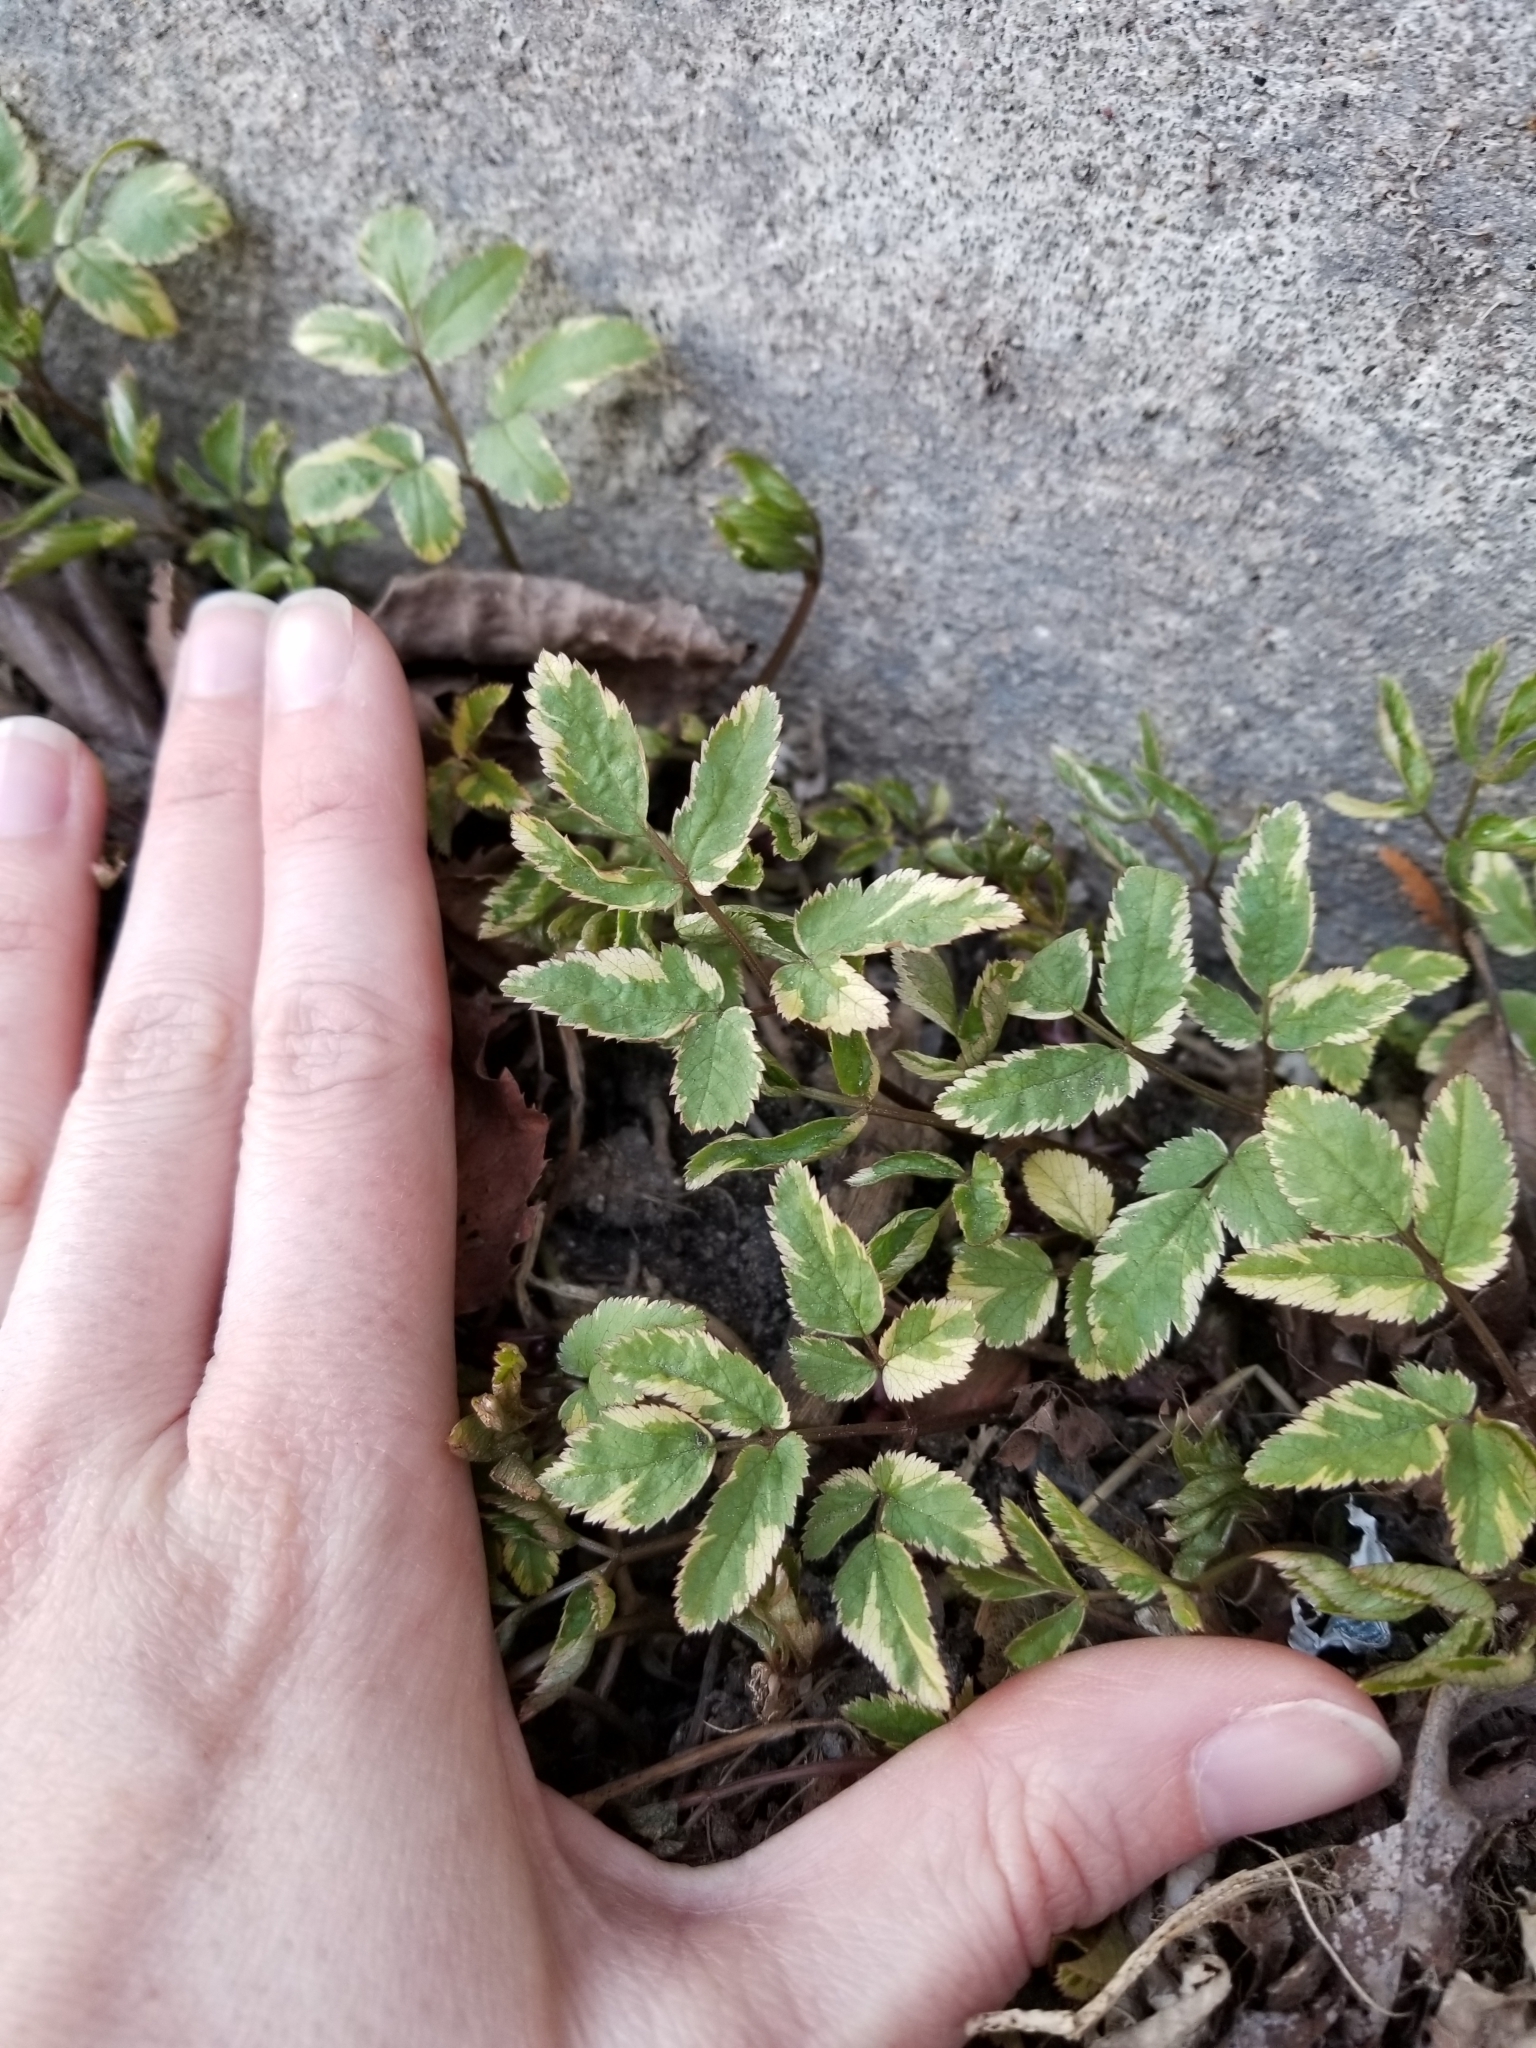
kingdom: Plantae
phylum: Tracheophyta
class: Magnoliopsida
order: Apiales
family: Apiaceae
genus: Aegopodium
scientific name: Aegopodium podagraria
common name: Ground-elder
